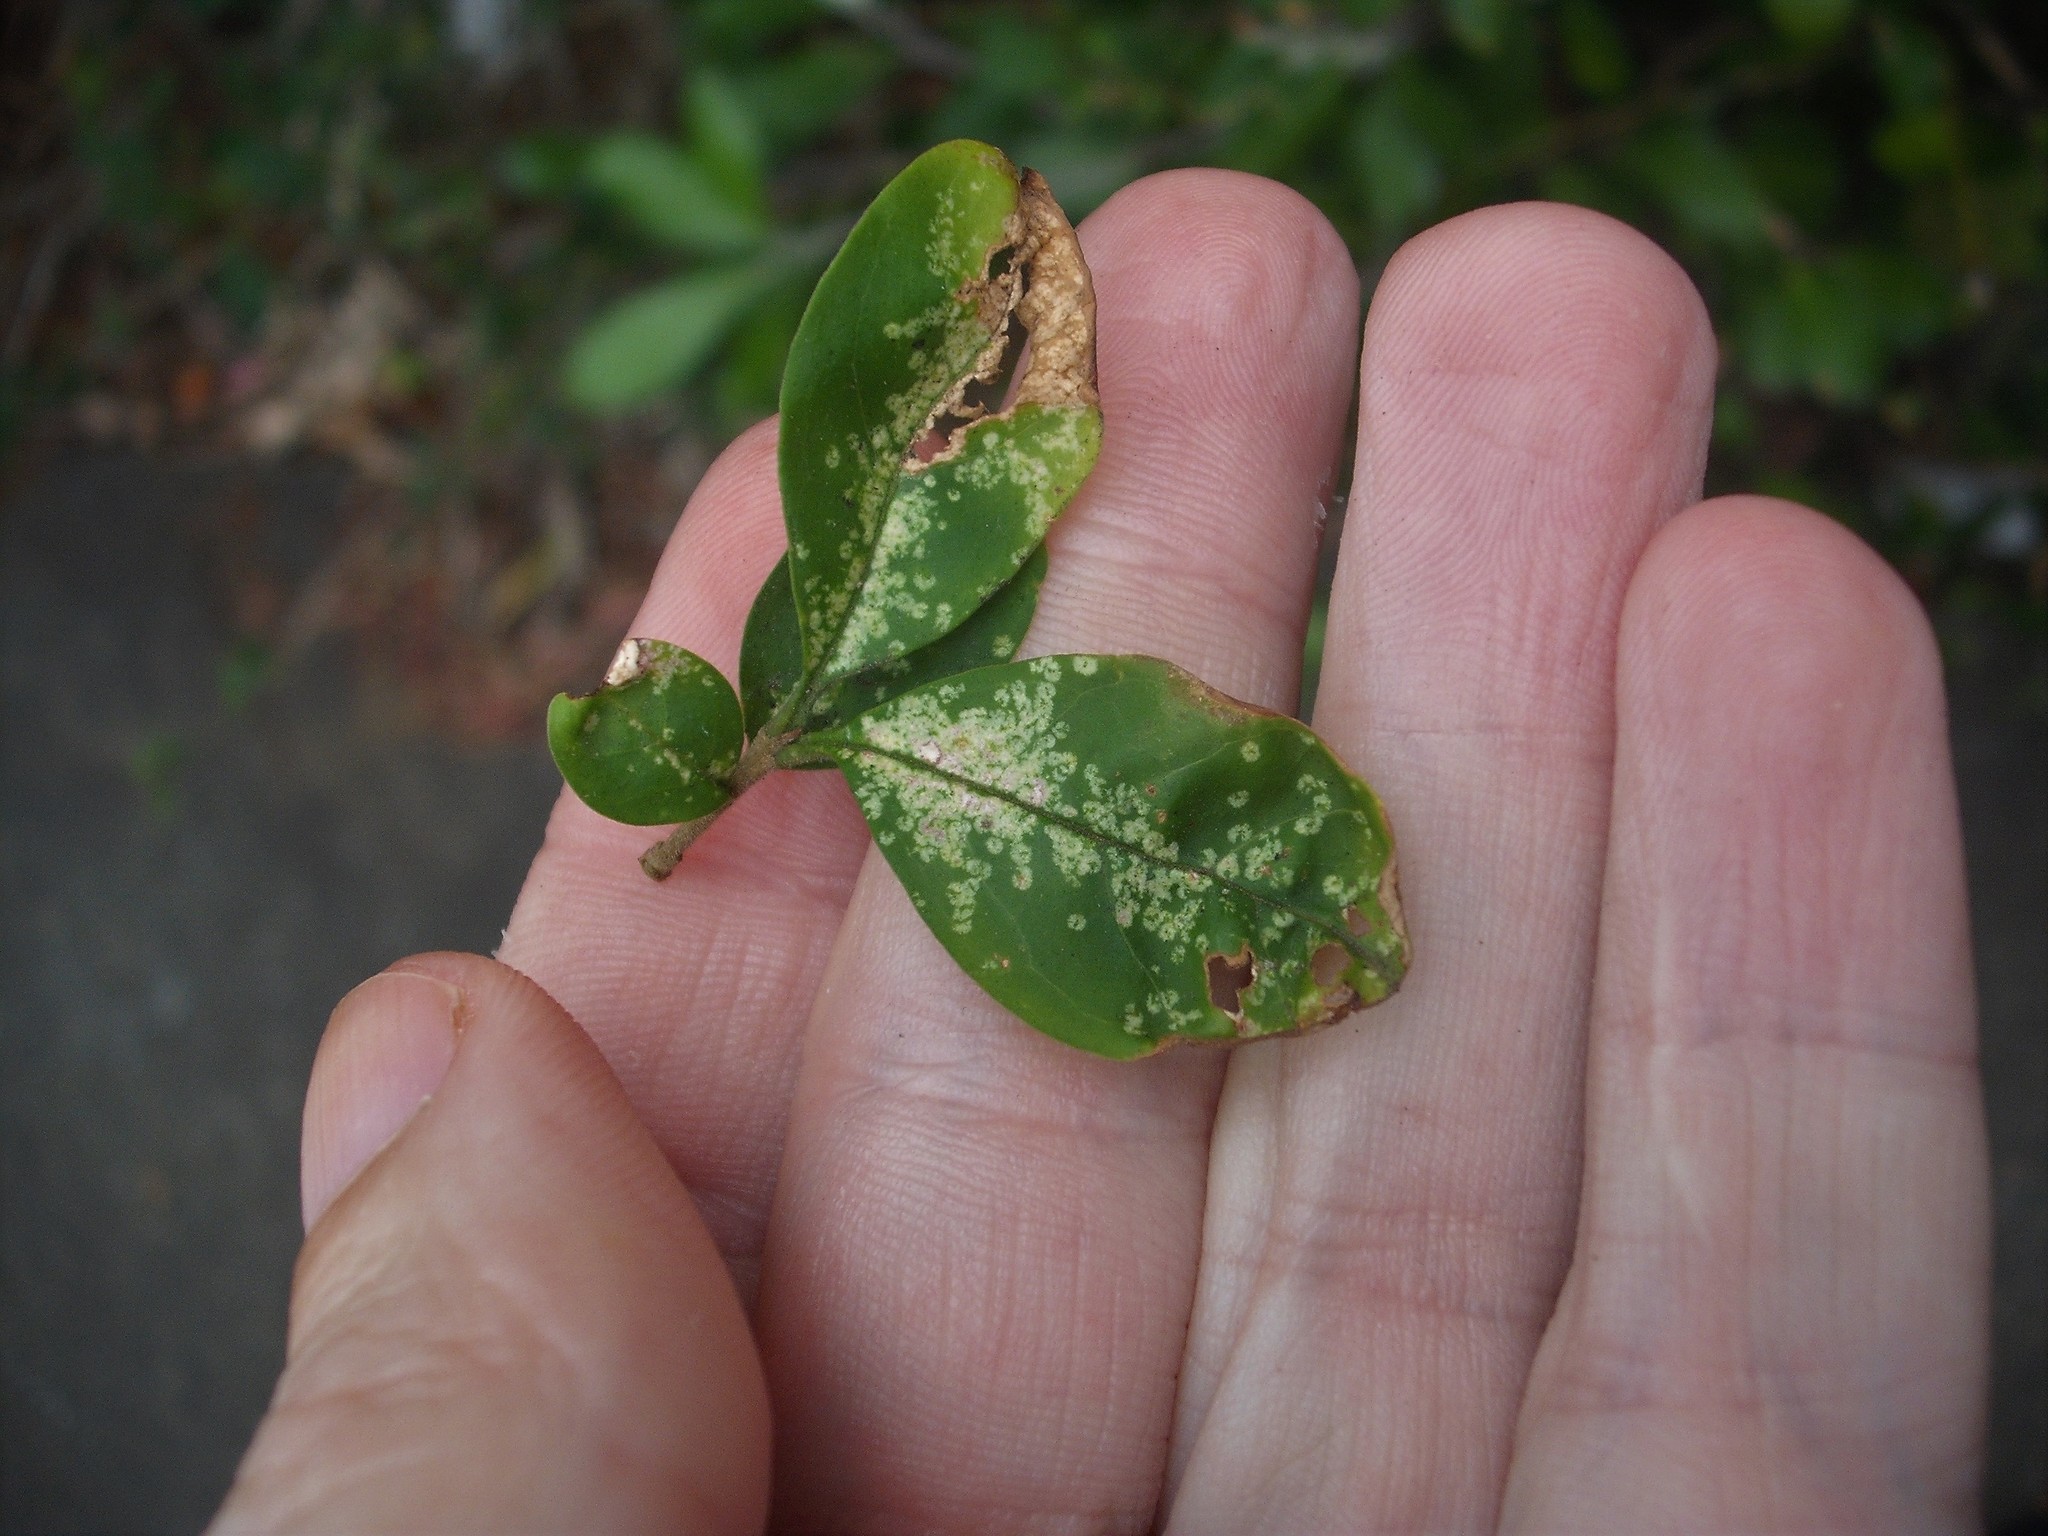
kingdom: Animalia
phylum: Arthropoda
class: Insecta
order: Hemiptera
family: Tingidae
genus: Leptoypha
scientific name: Leptoypha hospita
